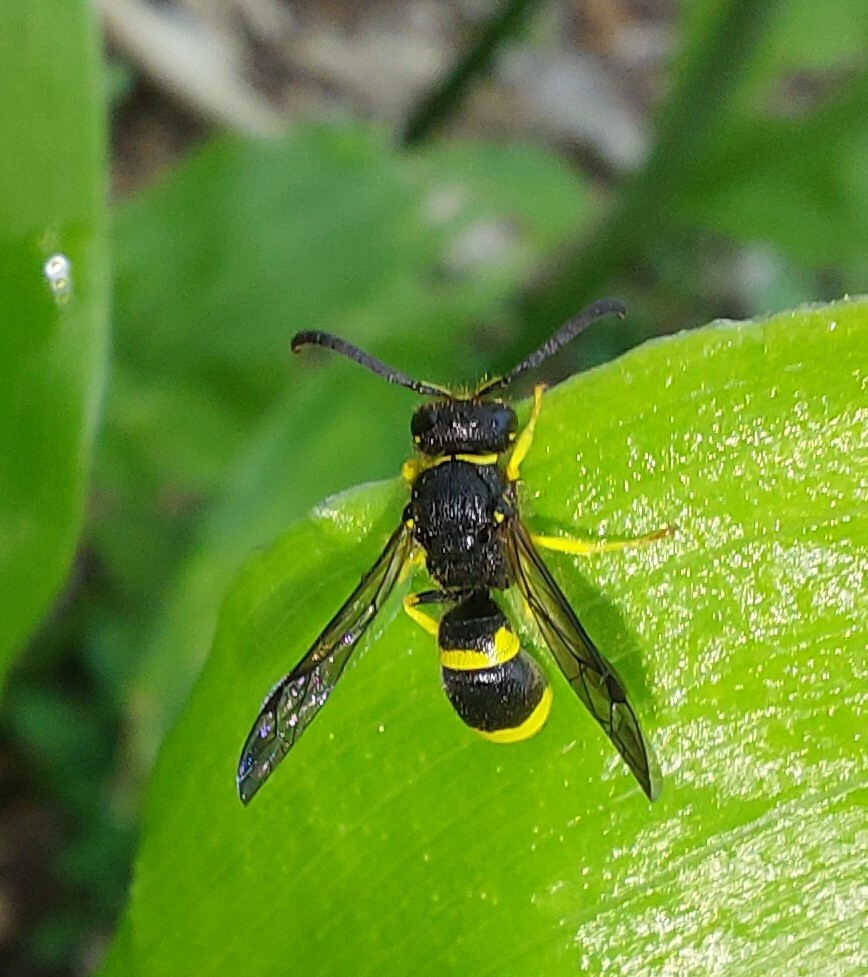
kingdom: Animalia
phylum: Arthropoda
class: Insecta
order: Hymenoptera
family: Vespidae
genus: Ancistrocerus
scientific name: Ancistrocerus gazella
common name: European tube wasp
